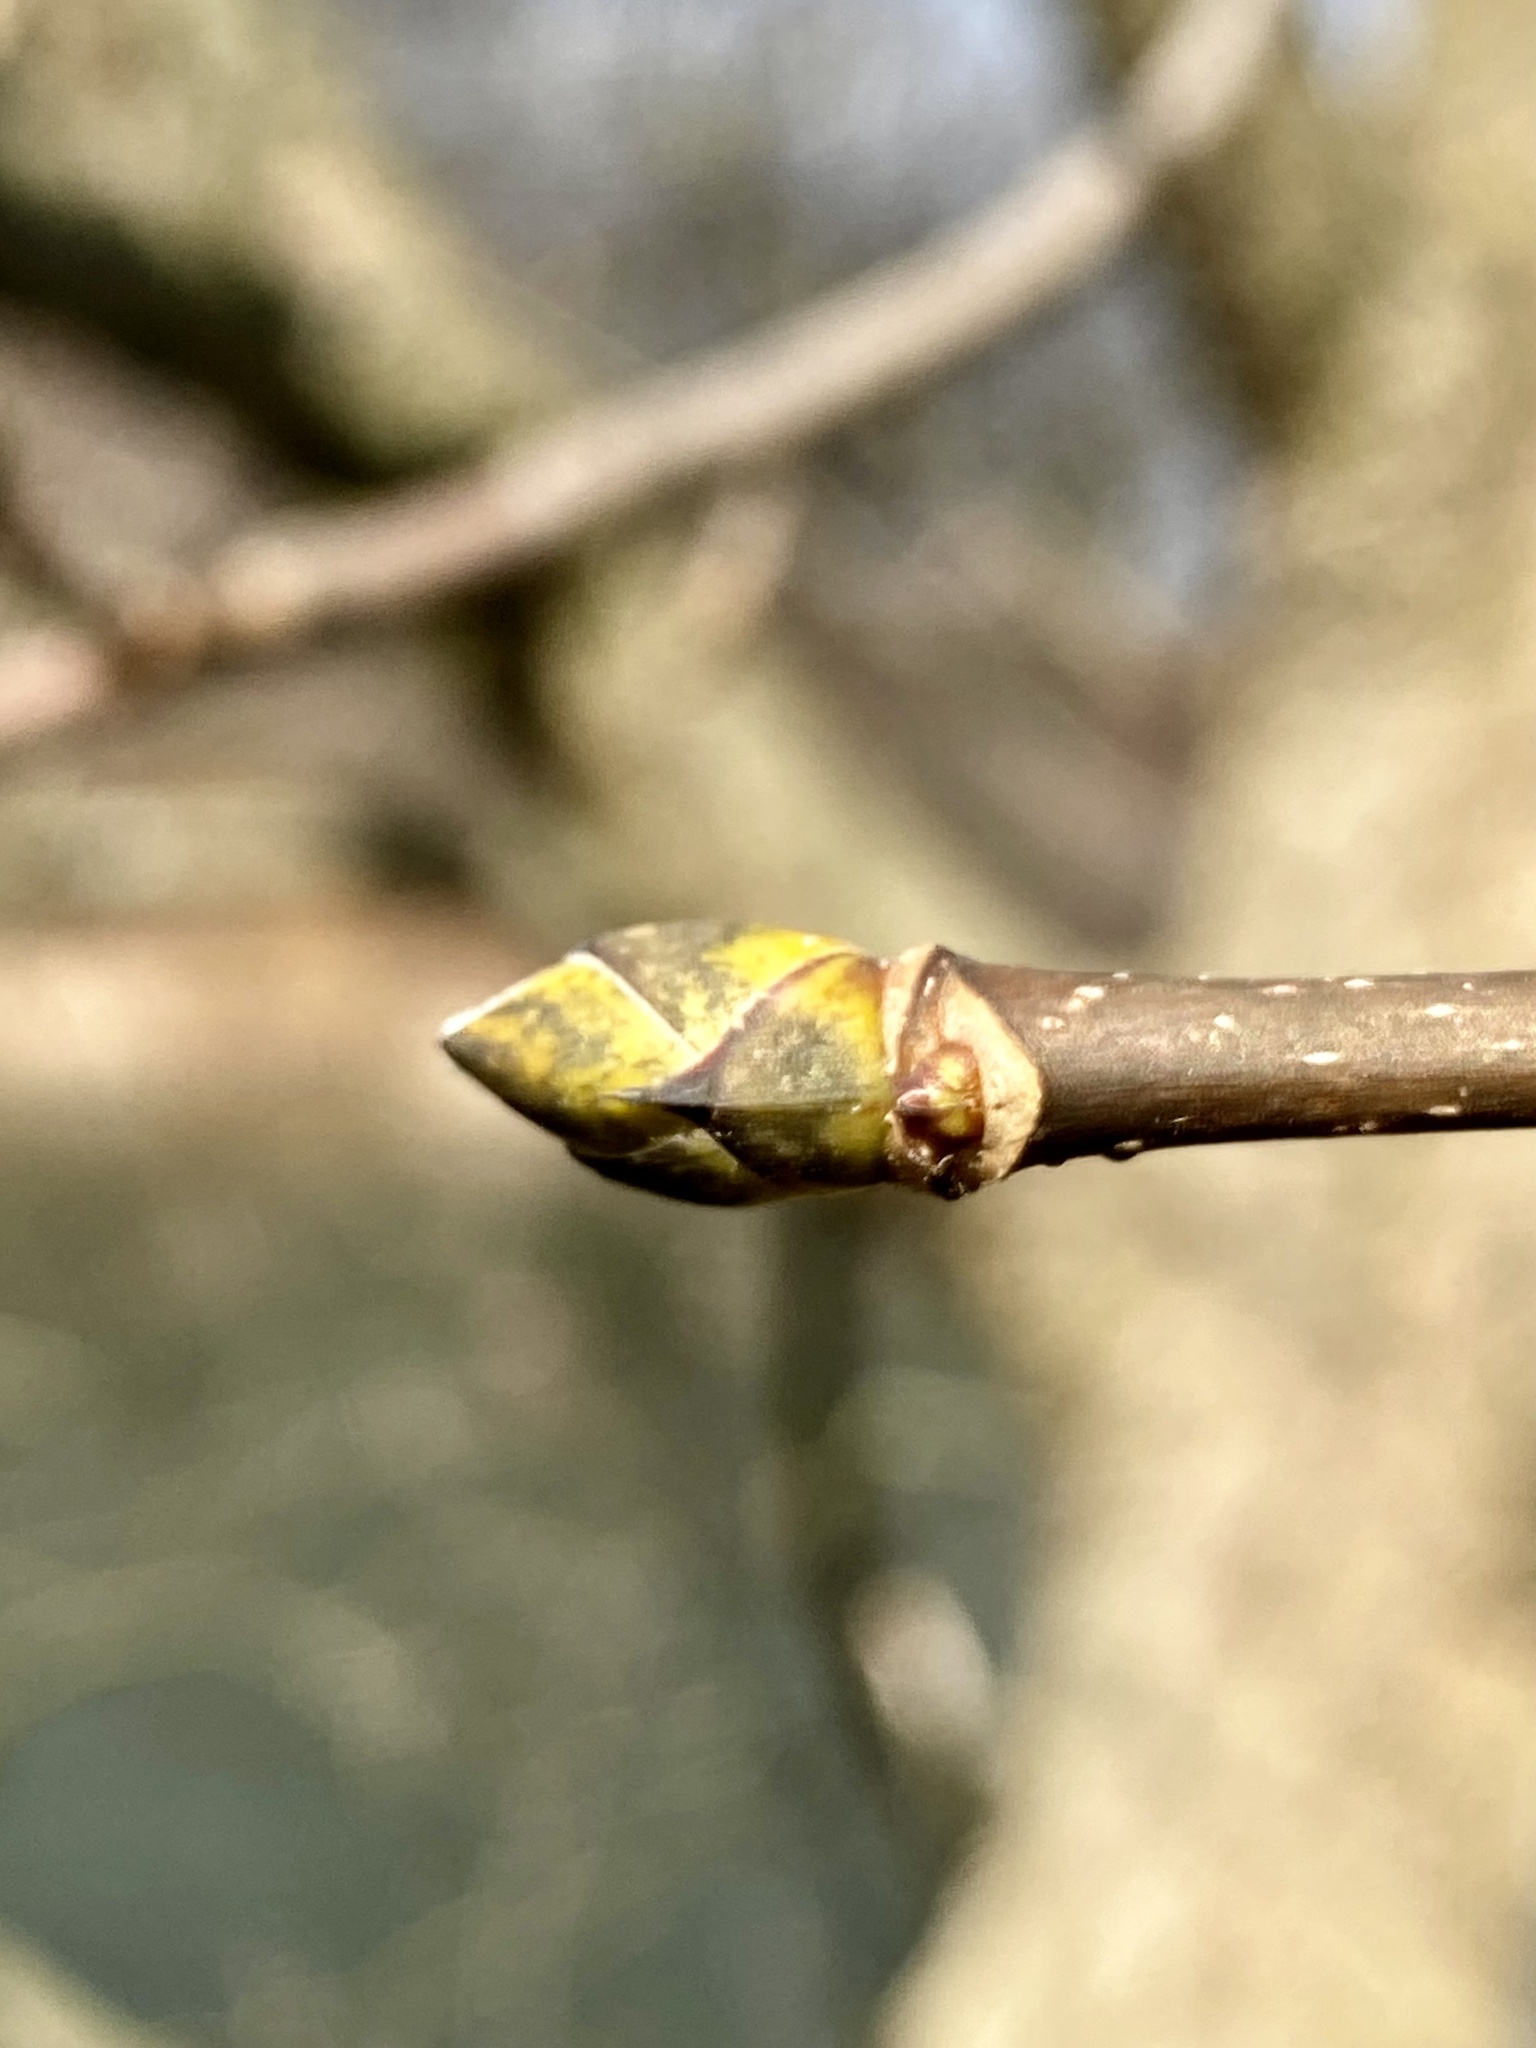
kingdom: Plantae
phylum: Tracheophyta
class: Magnoliopsida
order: Sapindales
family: Sapindaceae
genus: Acer
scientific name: Acer pseudoplatanus
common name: Sycamore
